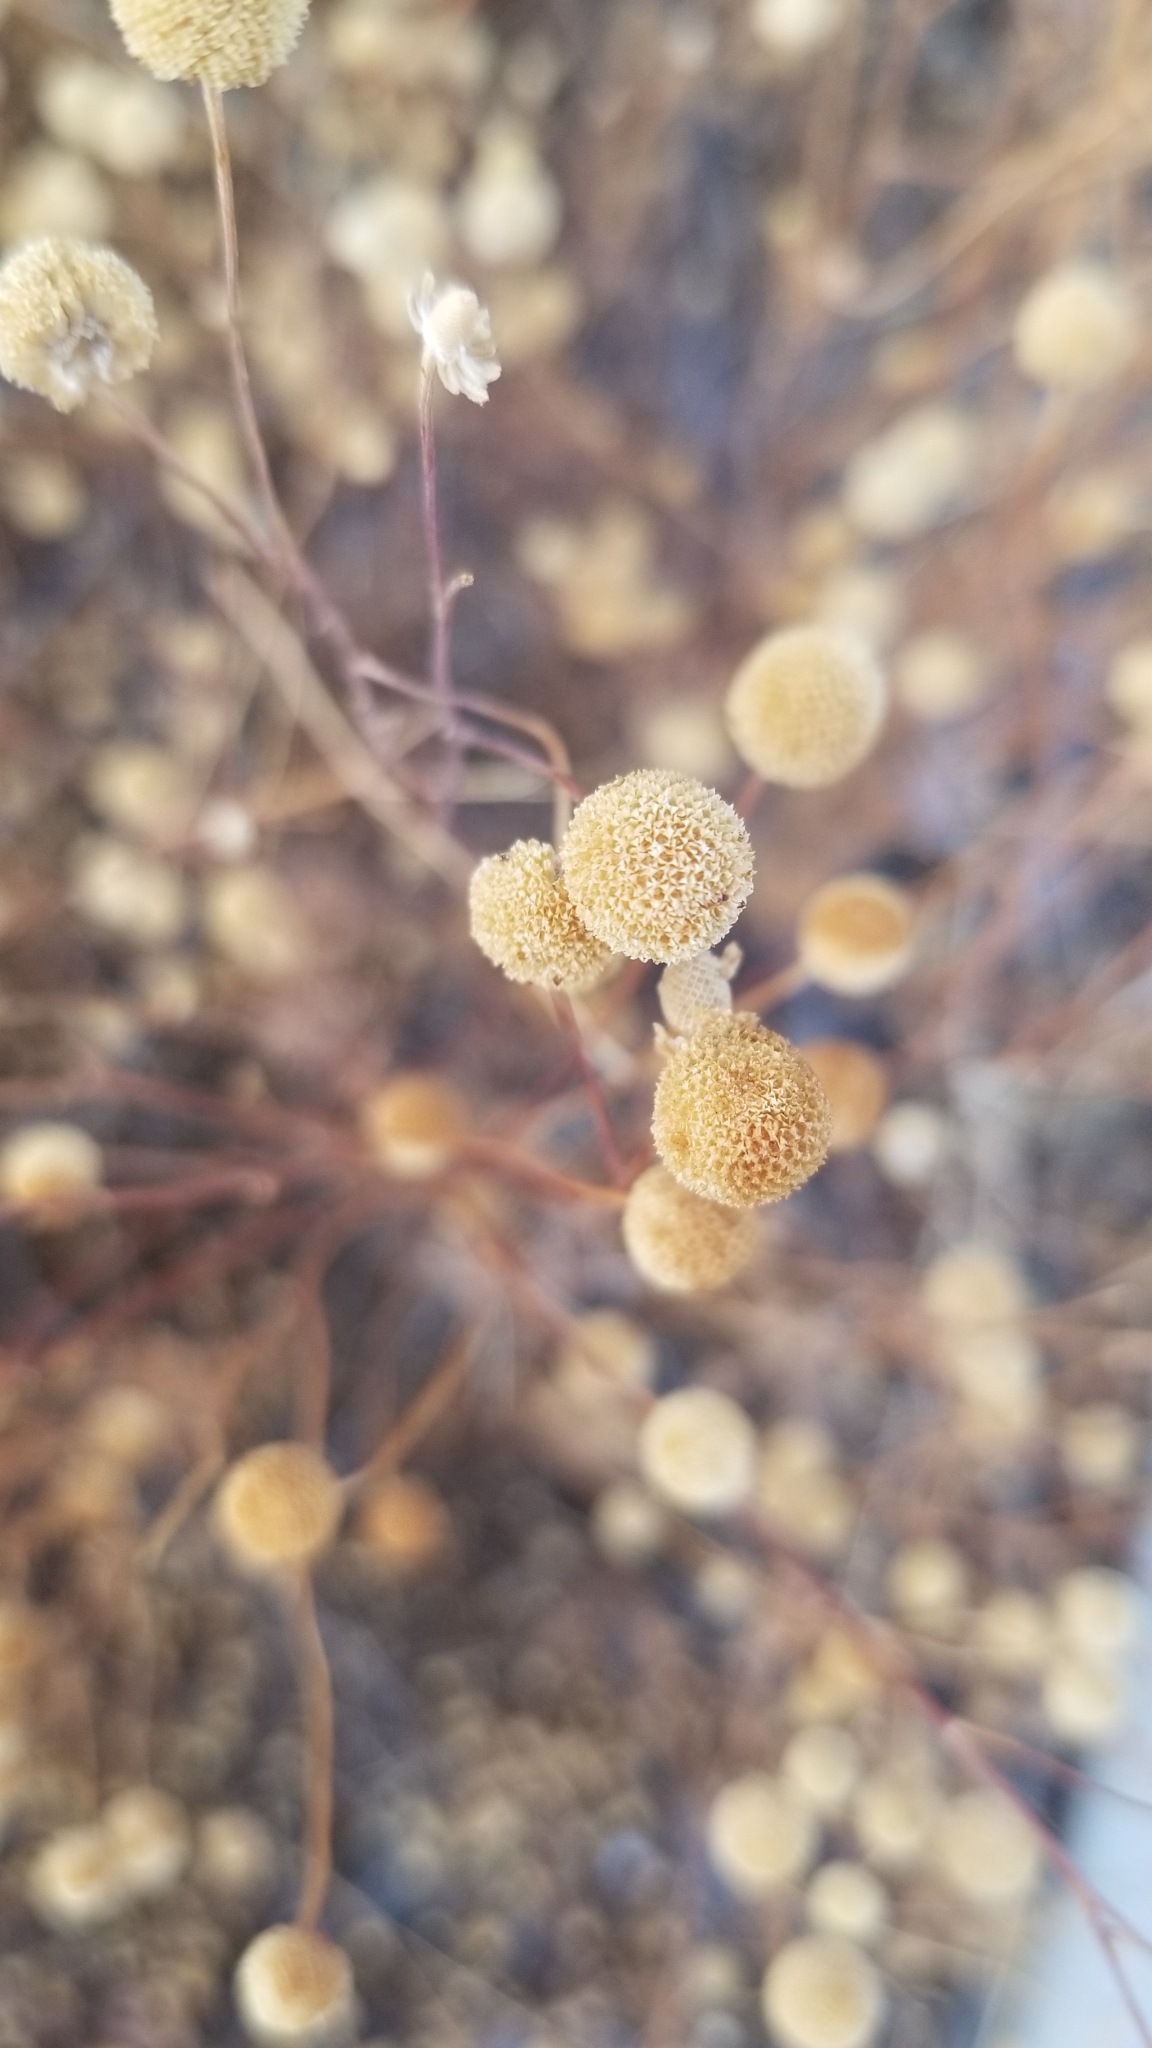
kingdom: Plantae
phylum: Tracheophyta
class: Magnoliopsida
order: Asterales
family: Asteraceae
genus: Oncosiphon
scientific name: Oncosiphon pilulifer
